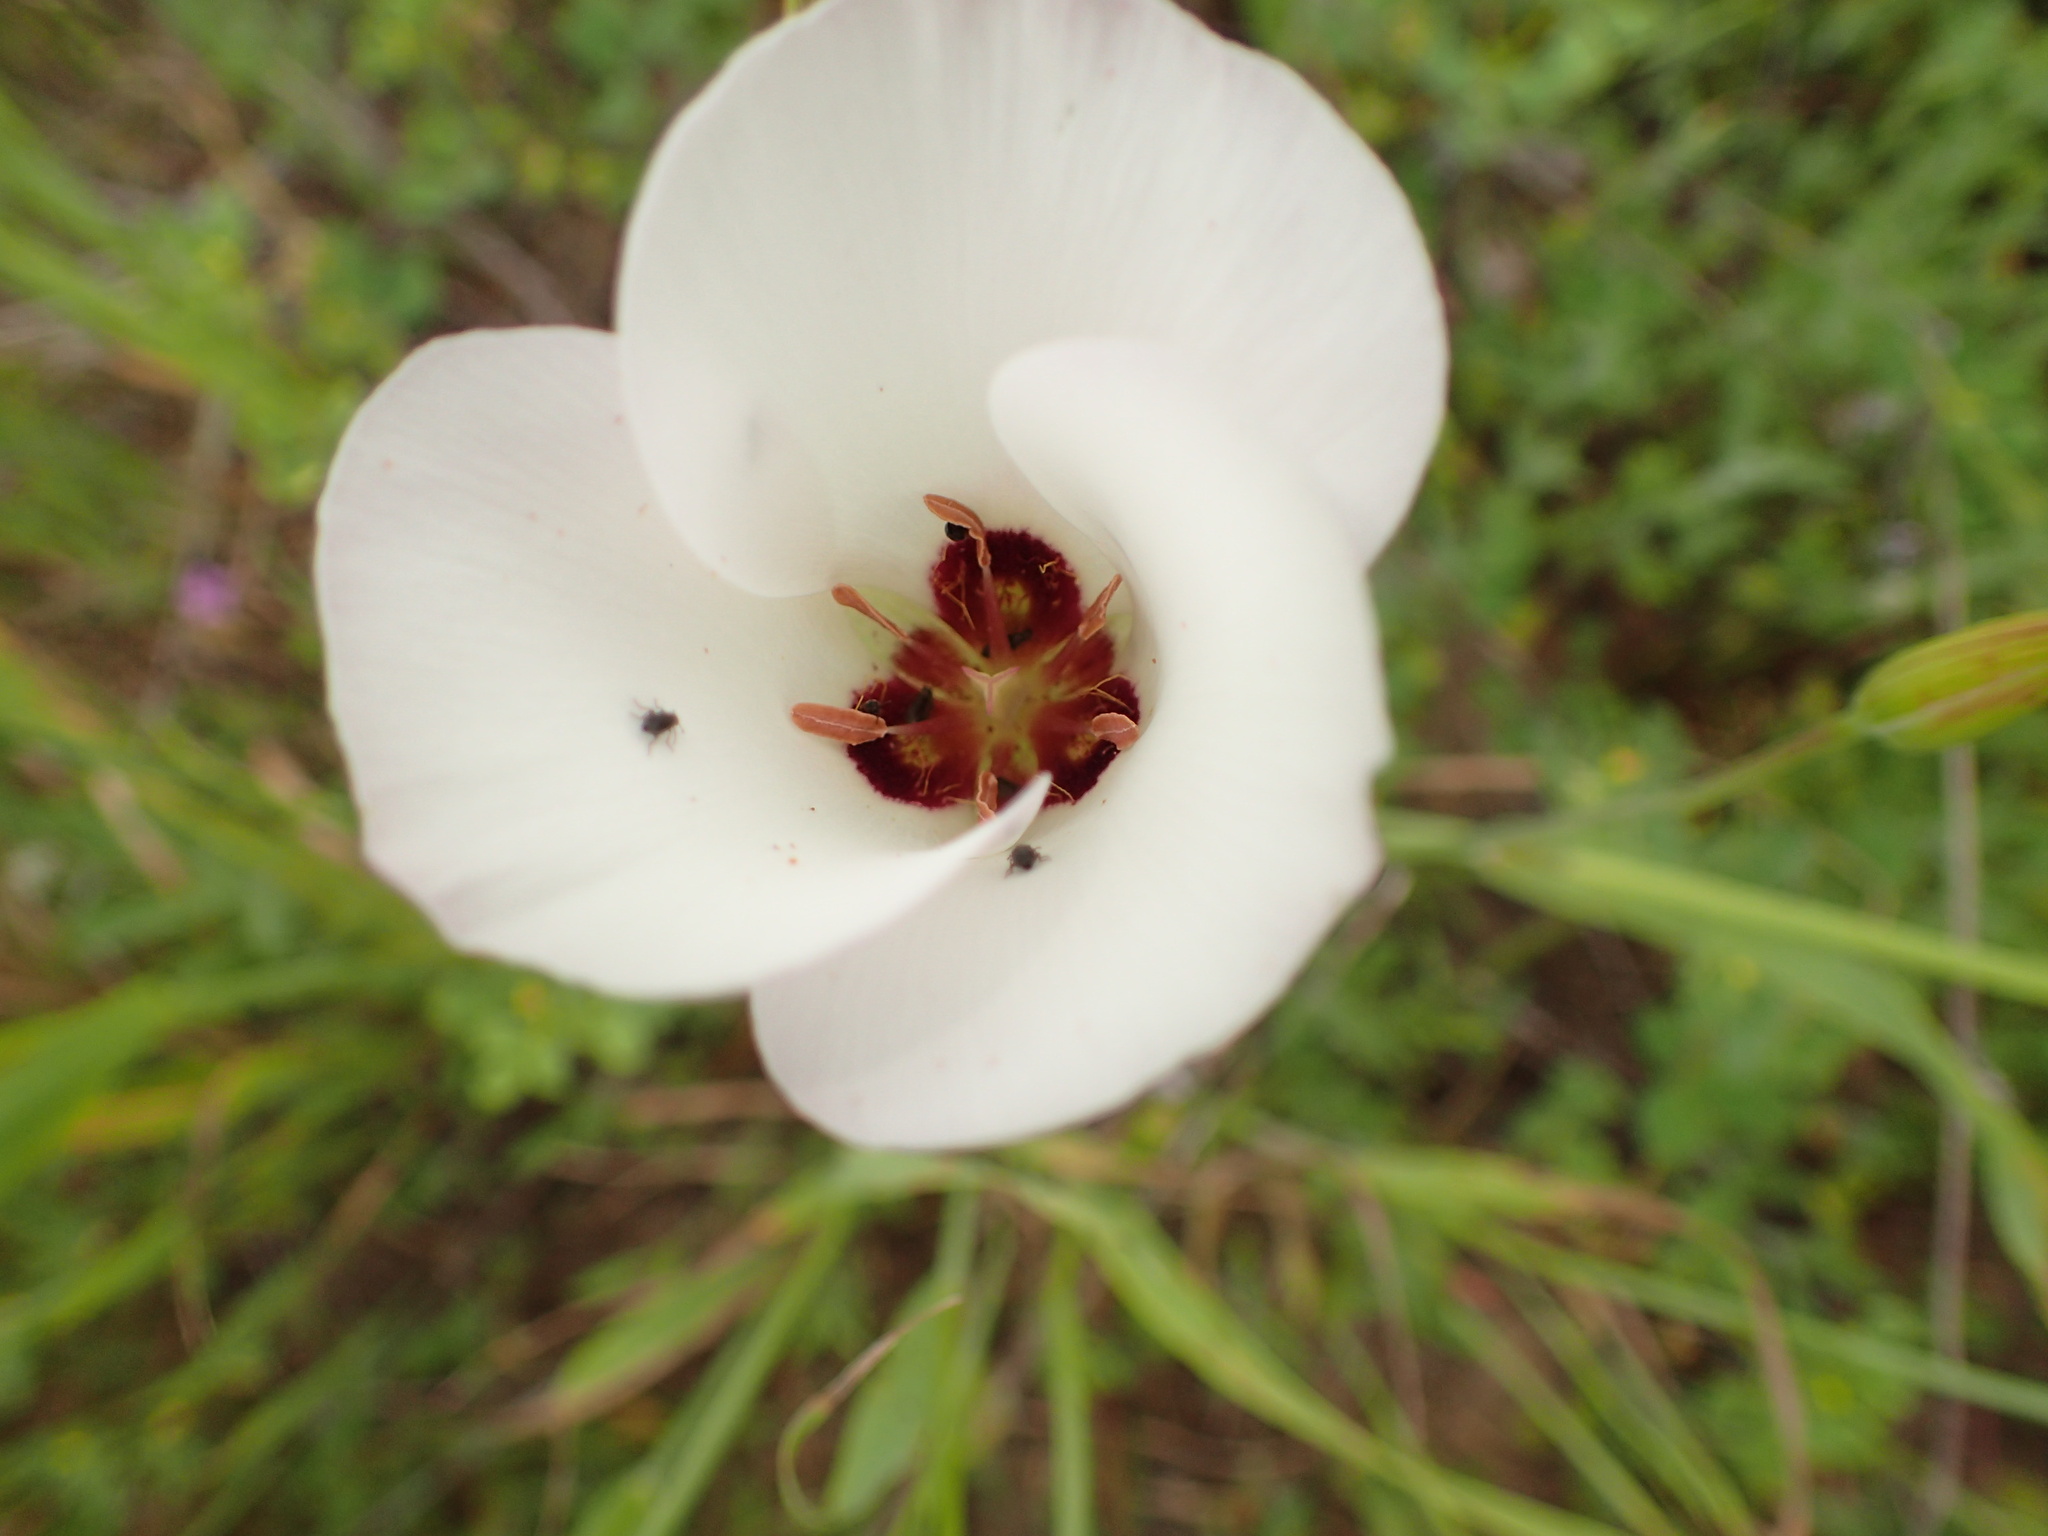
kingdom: Plantae
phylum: Tracheophyta
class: Liliopsida
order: Liliales
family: Liliaceae
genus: Calochortus
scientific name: Calochortus catalinae
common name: Catalina mariposa-lily
